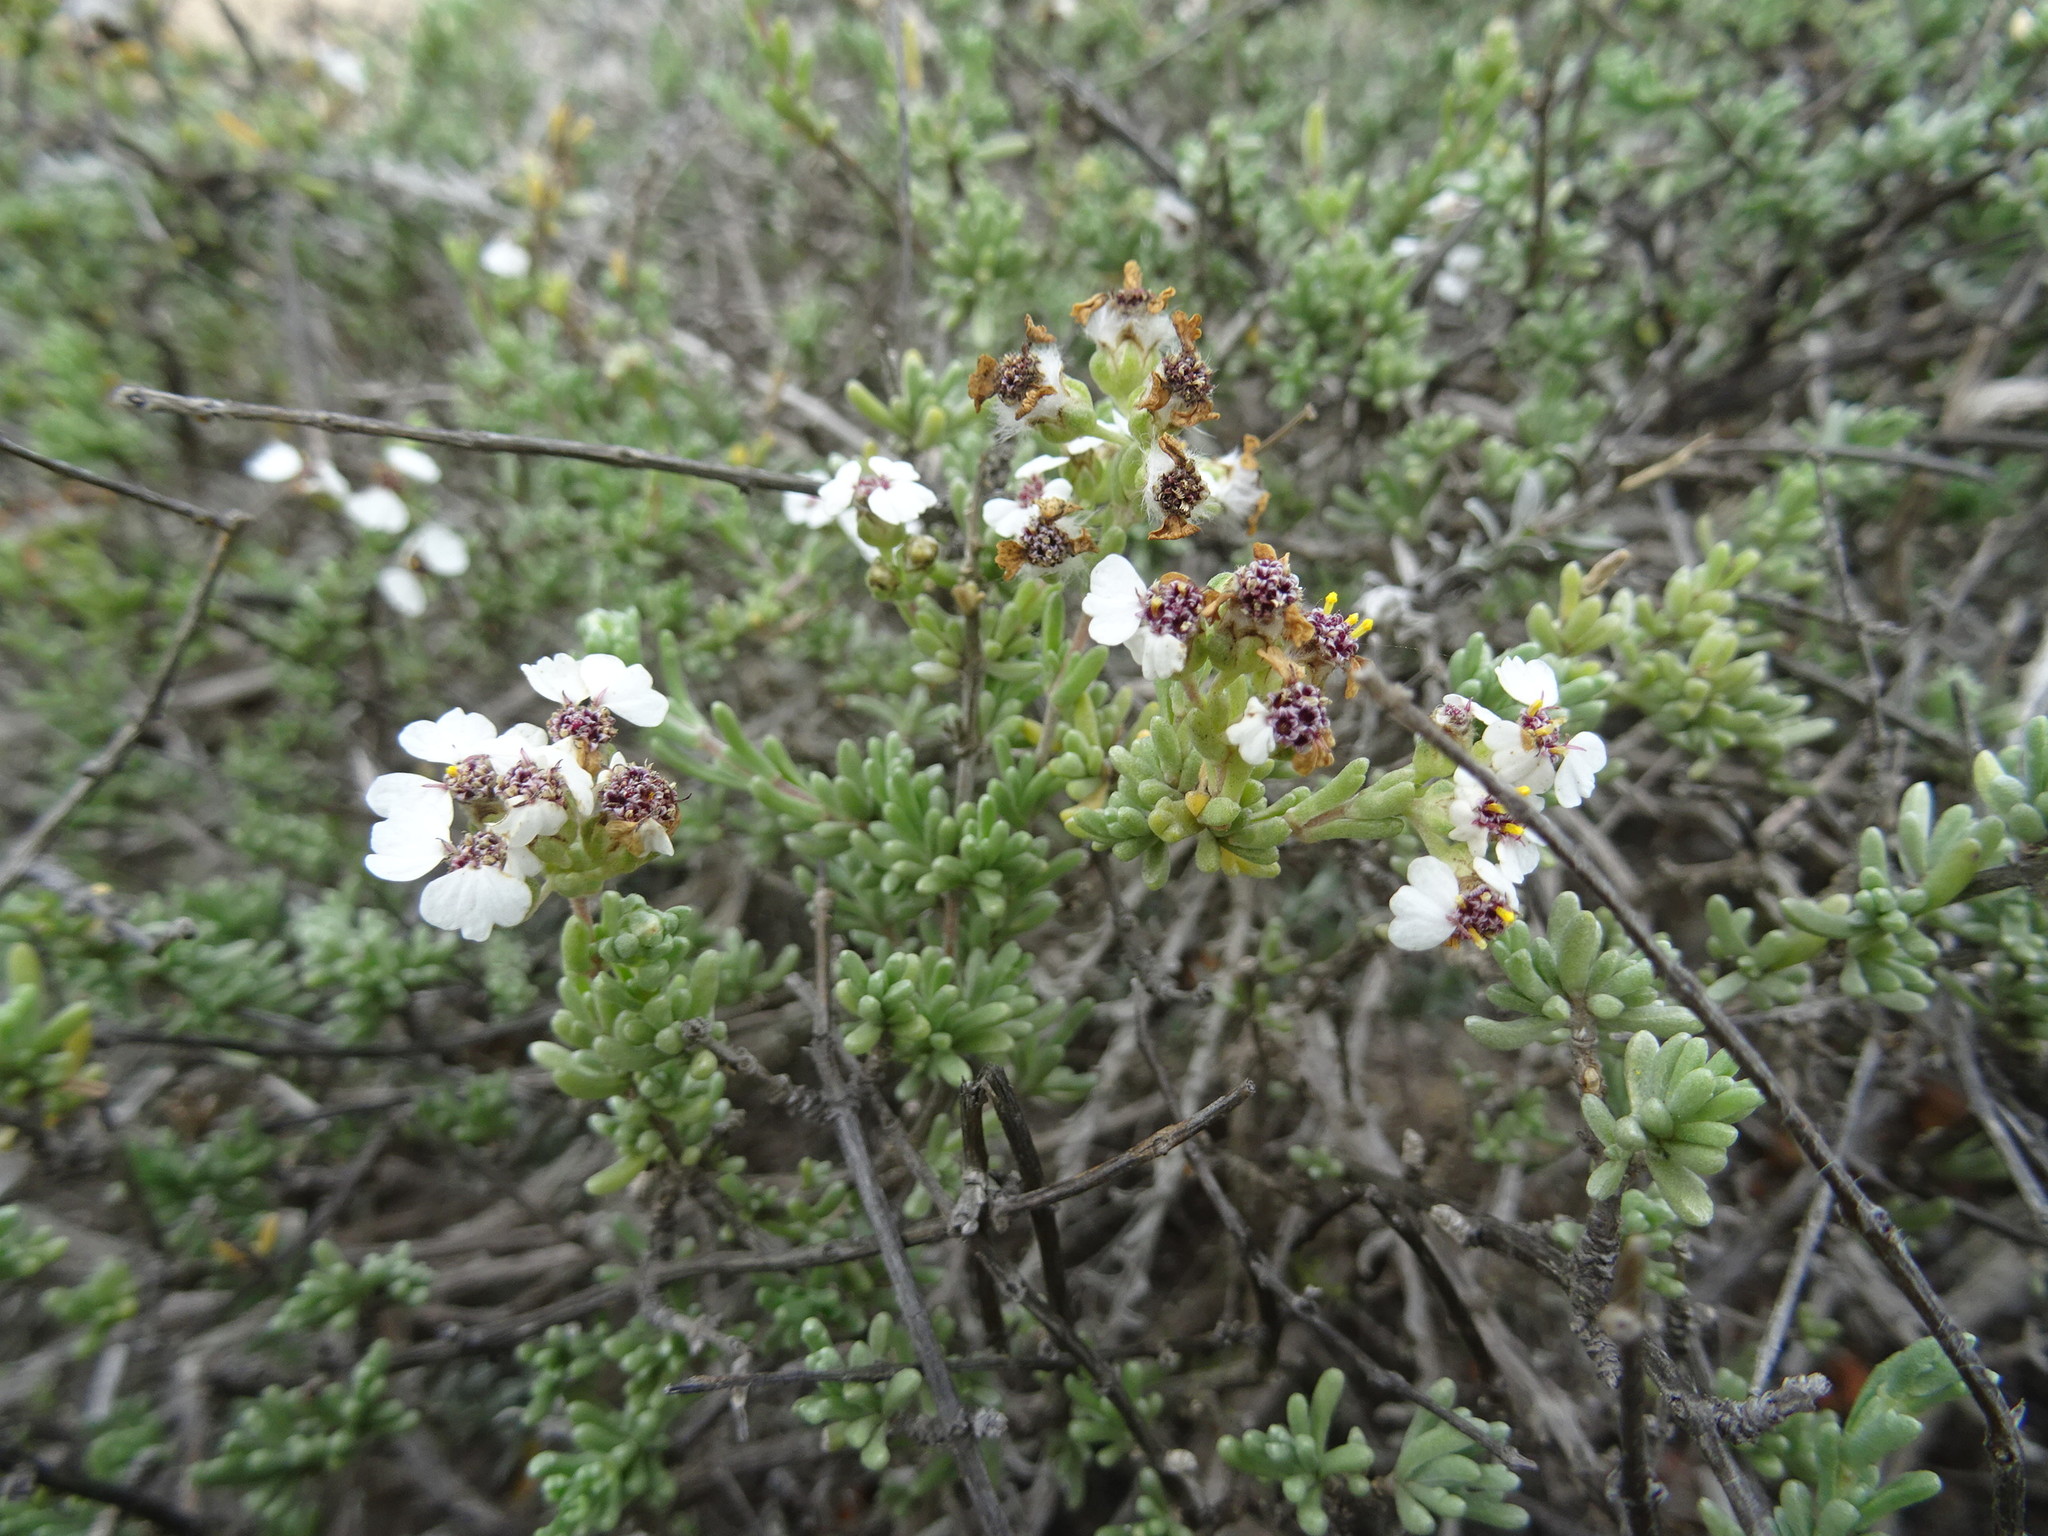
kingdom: Plantae
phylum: Tracheophyta
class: Magnoliopsida
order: Asterales
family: Asteraceae
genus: Eriocephalus
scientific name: Eriocephalus africanus
